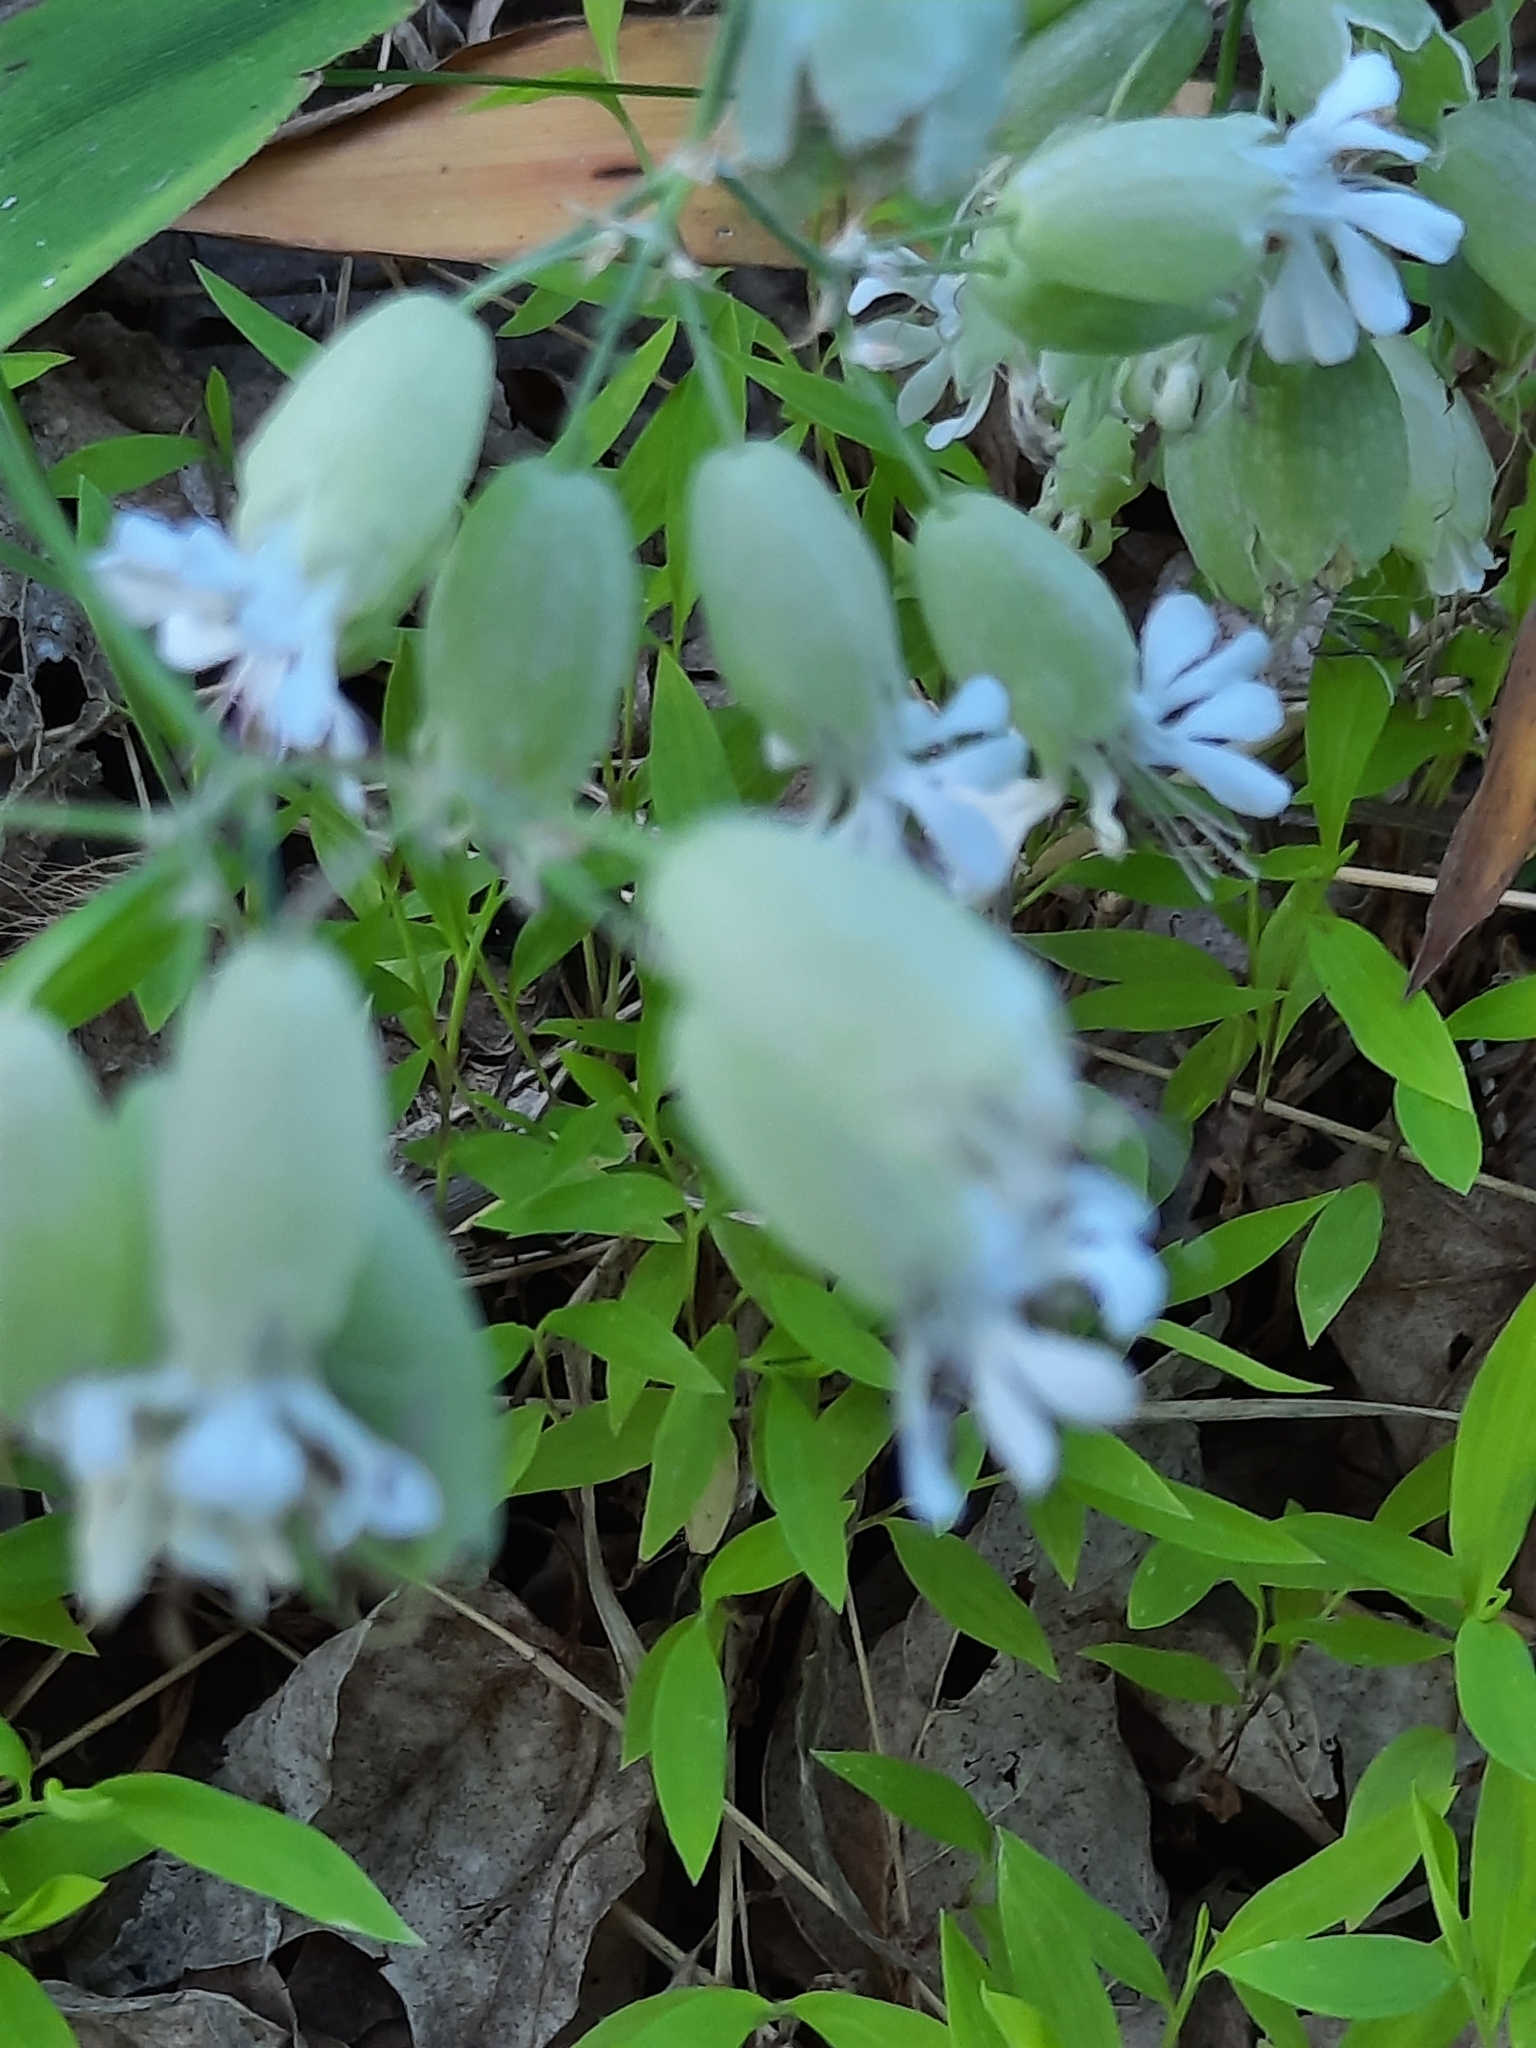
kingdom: Plantae
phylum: Tracheophyta
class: Magnoliopsida
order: Caryophyllales
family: Caryophyllaceae
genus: Silene
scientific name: Silene vulgaris
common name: Bladder campion
